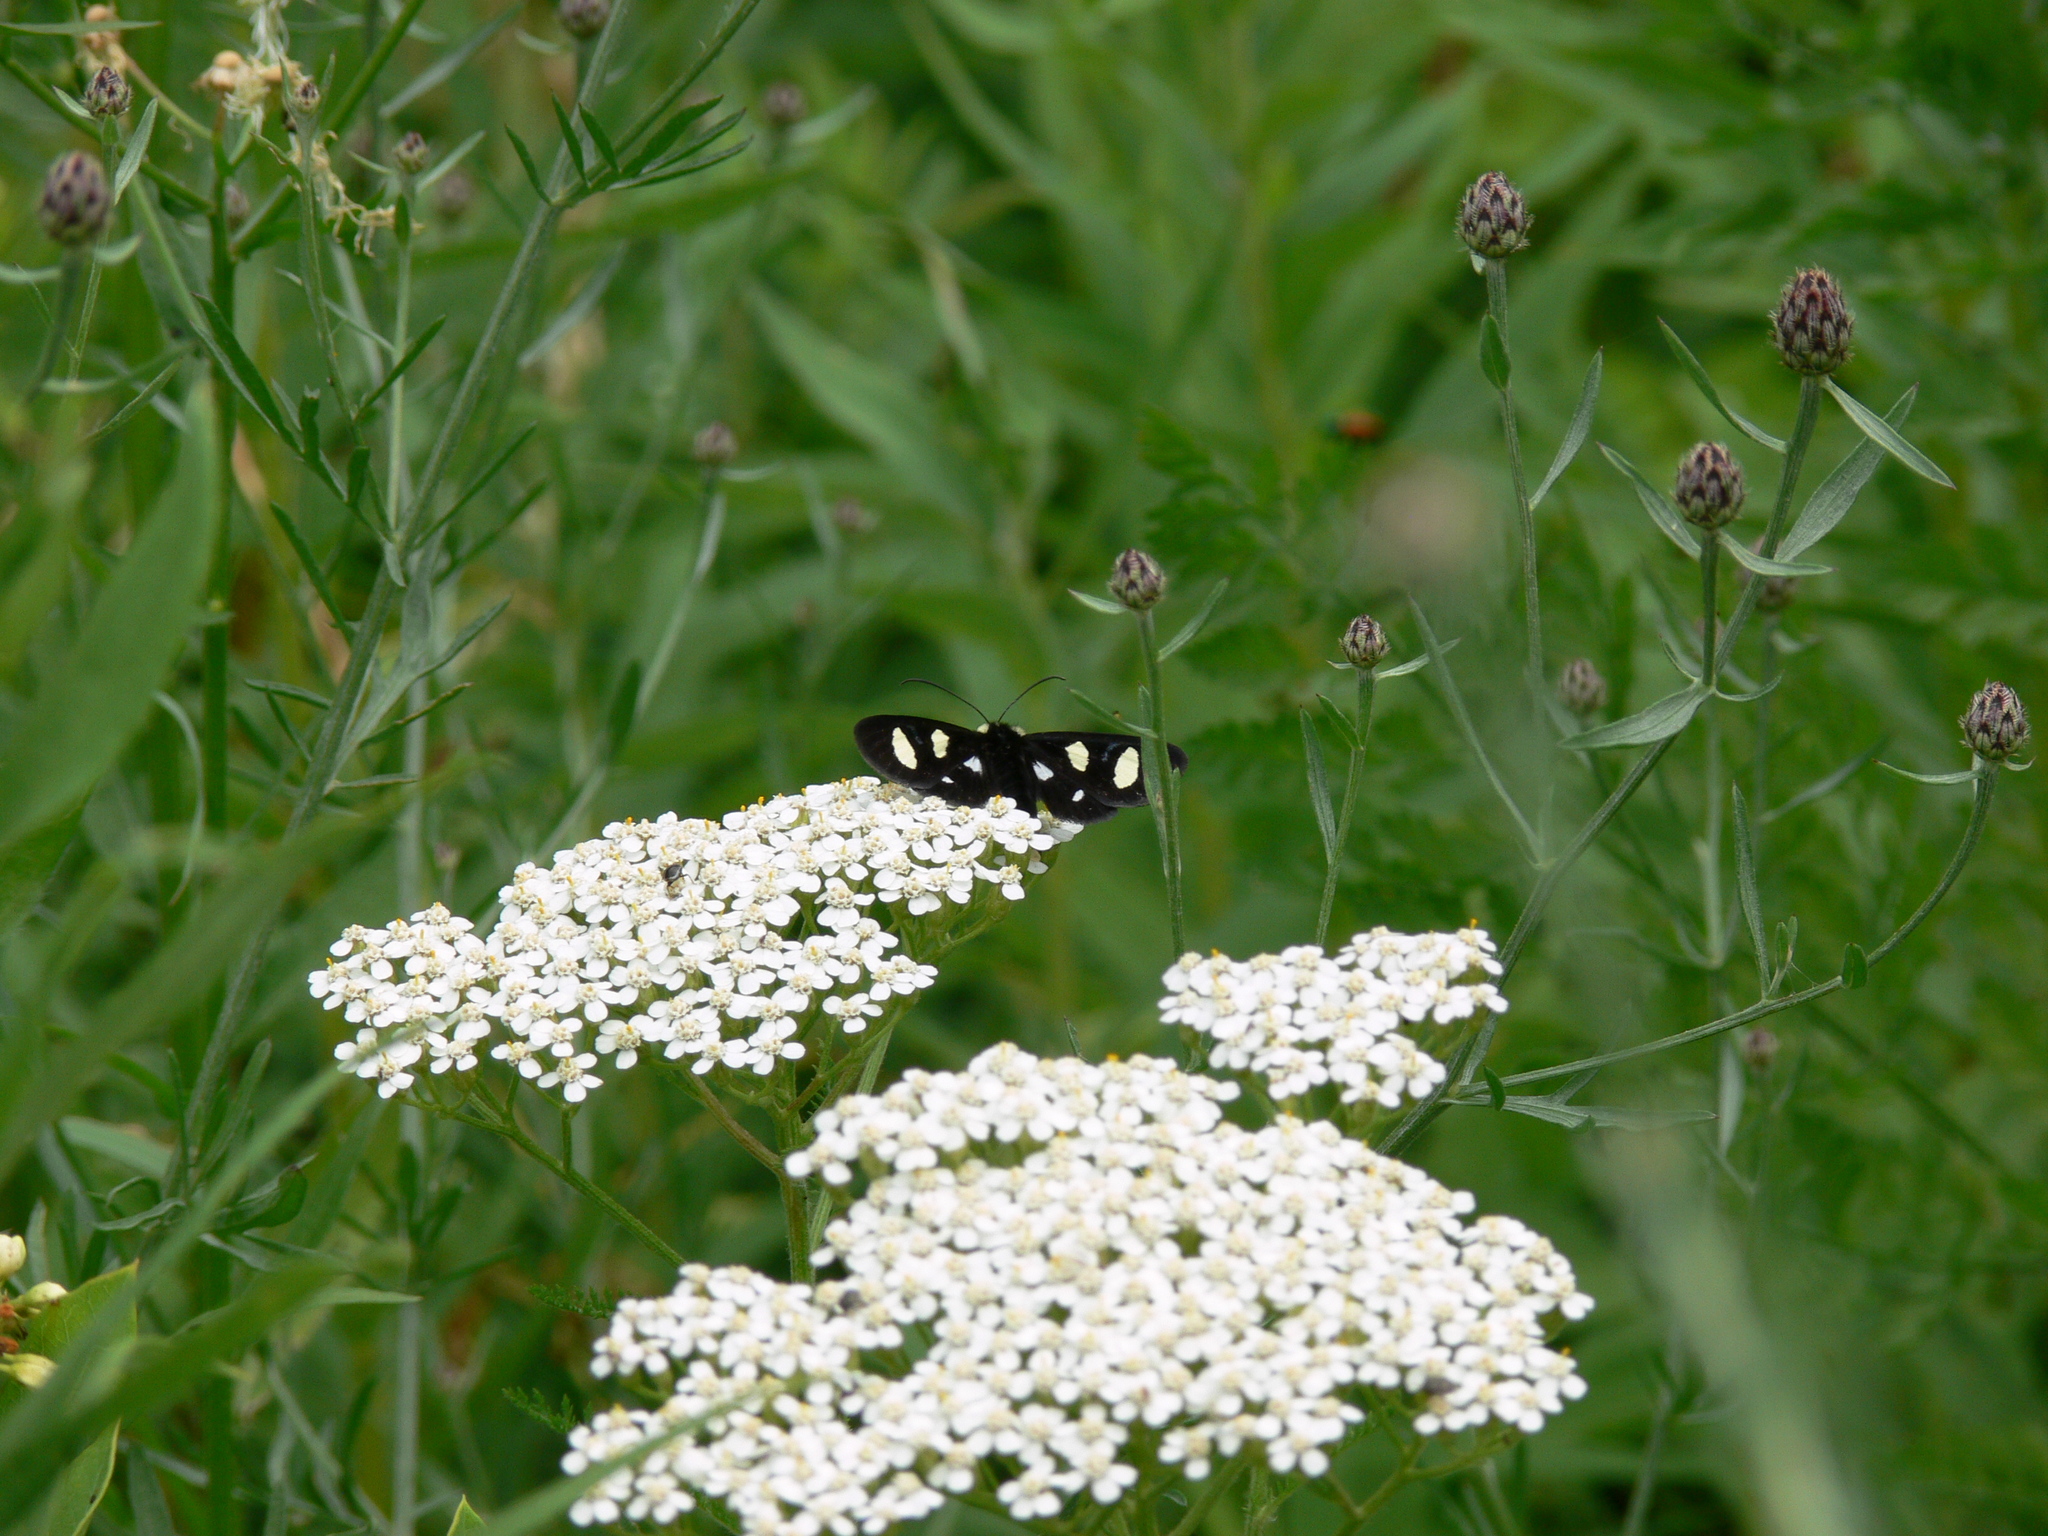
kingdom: Animalia
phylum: Arthropoda
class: Insecta
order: Lepidoptera
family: Noctuidae
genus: Alypia
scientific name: Alypia octomaculata
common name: Eight-spotted forester
